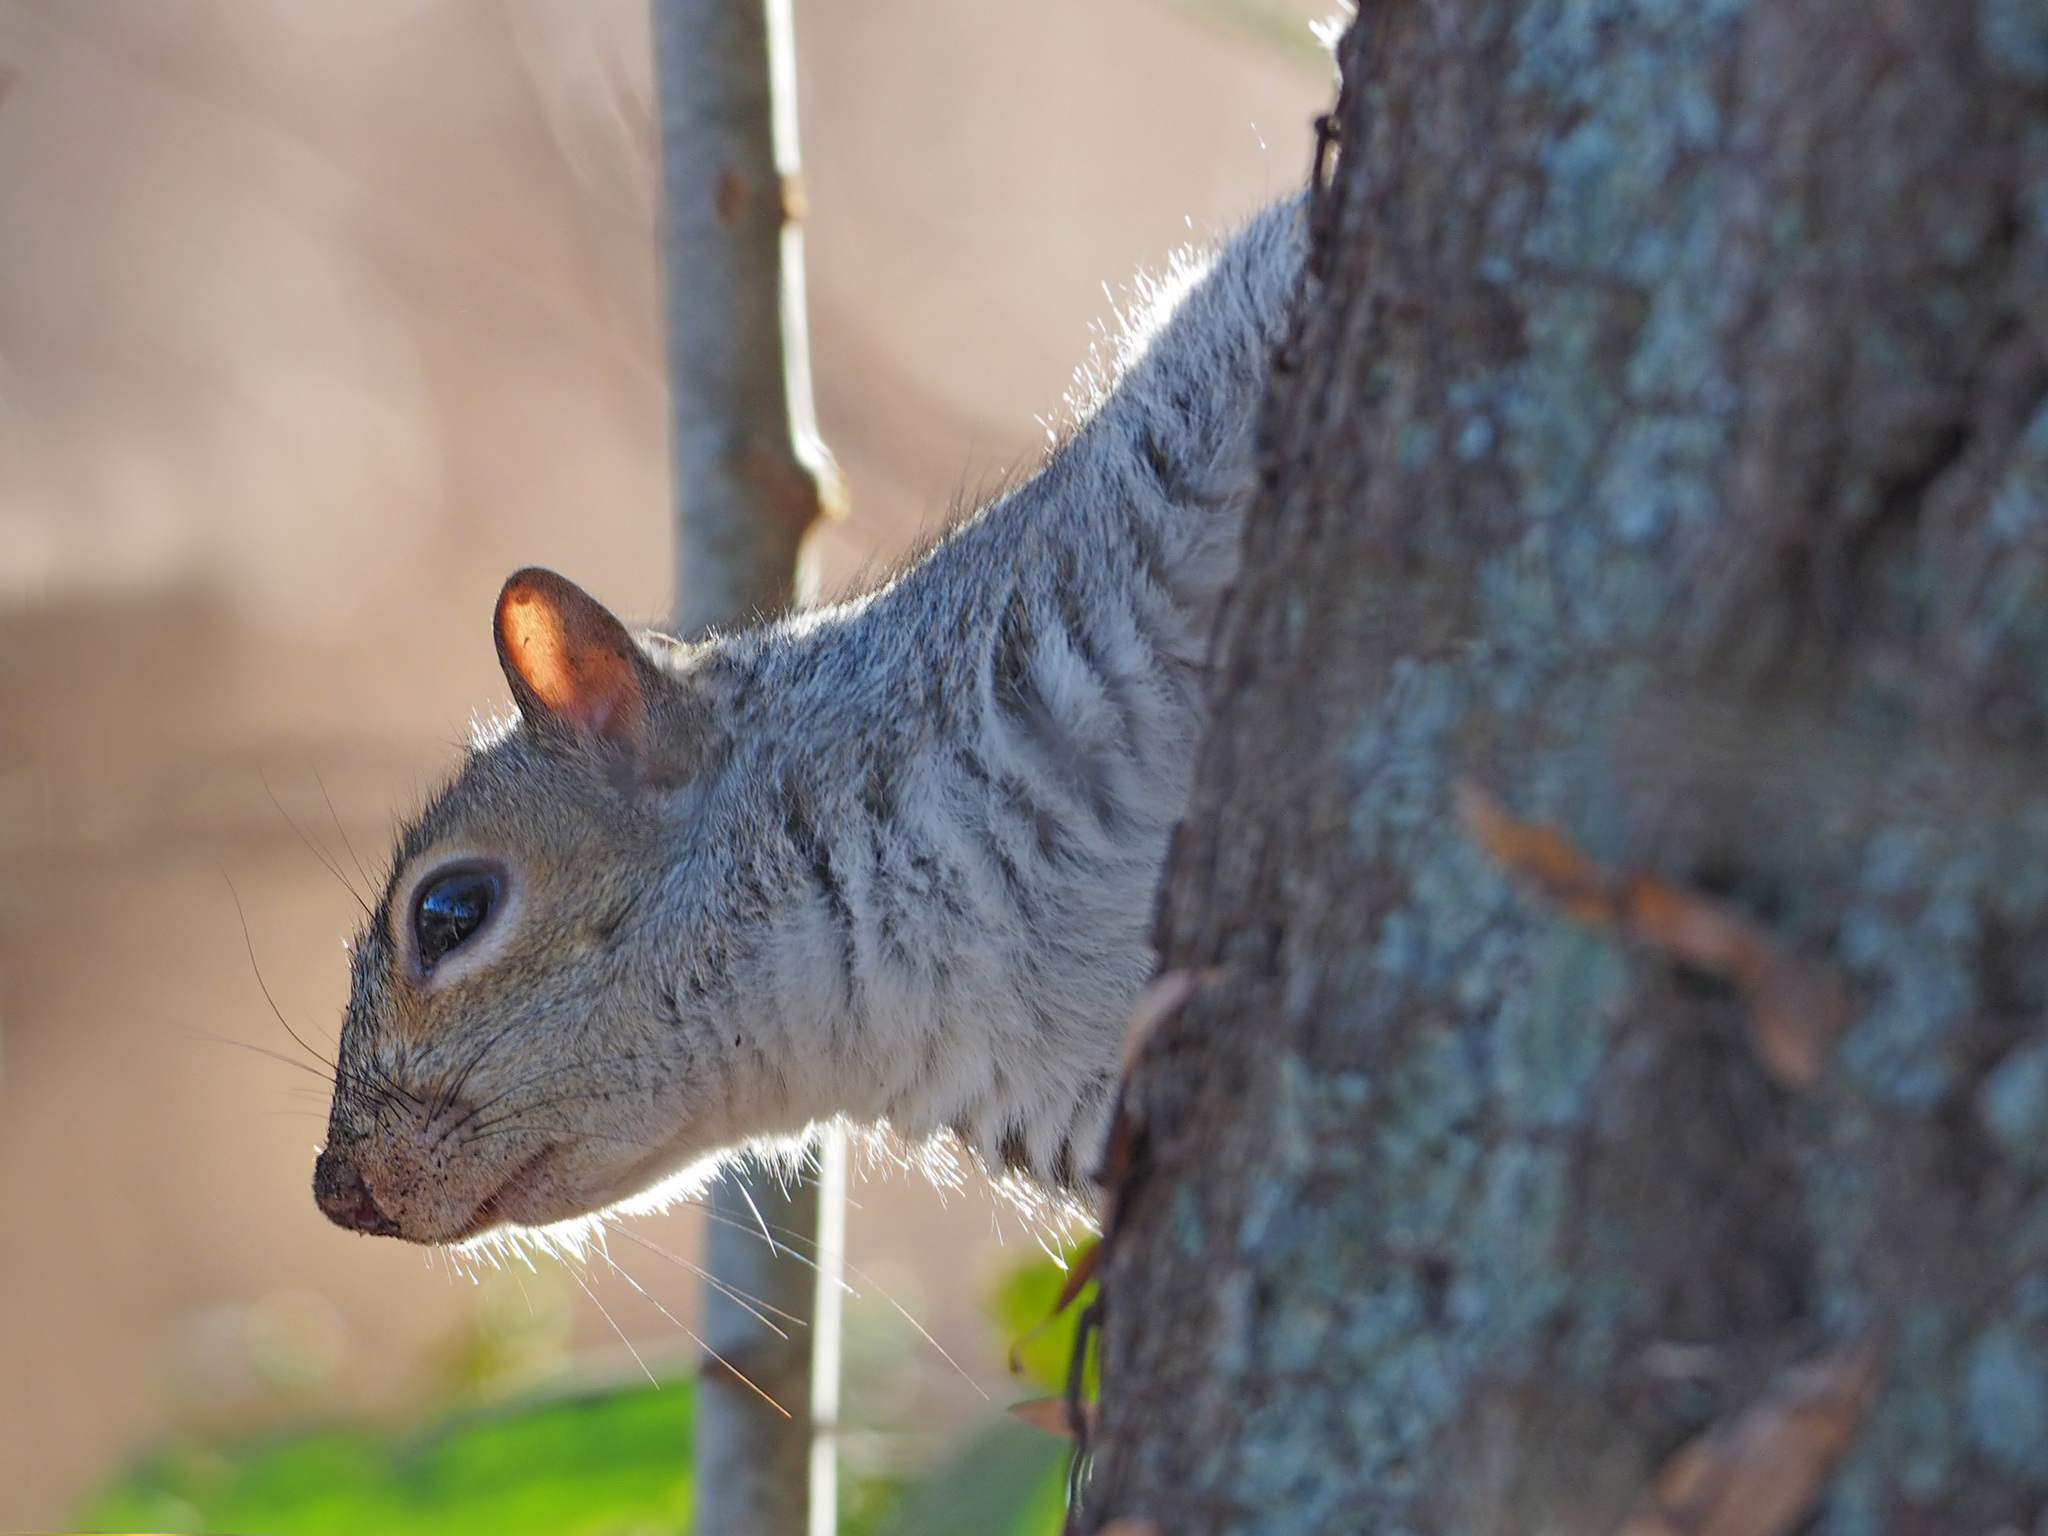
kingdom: Animalia
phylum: Chordata
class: Mammalia
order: Rodentia
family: Sciuridae
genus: Sciurus
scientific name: Sciurus carolinensis
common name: Eastern gray squirrel
